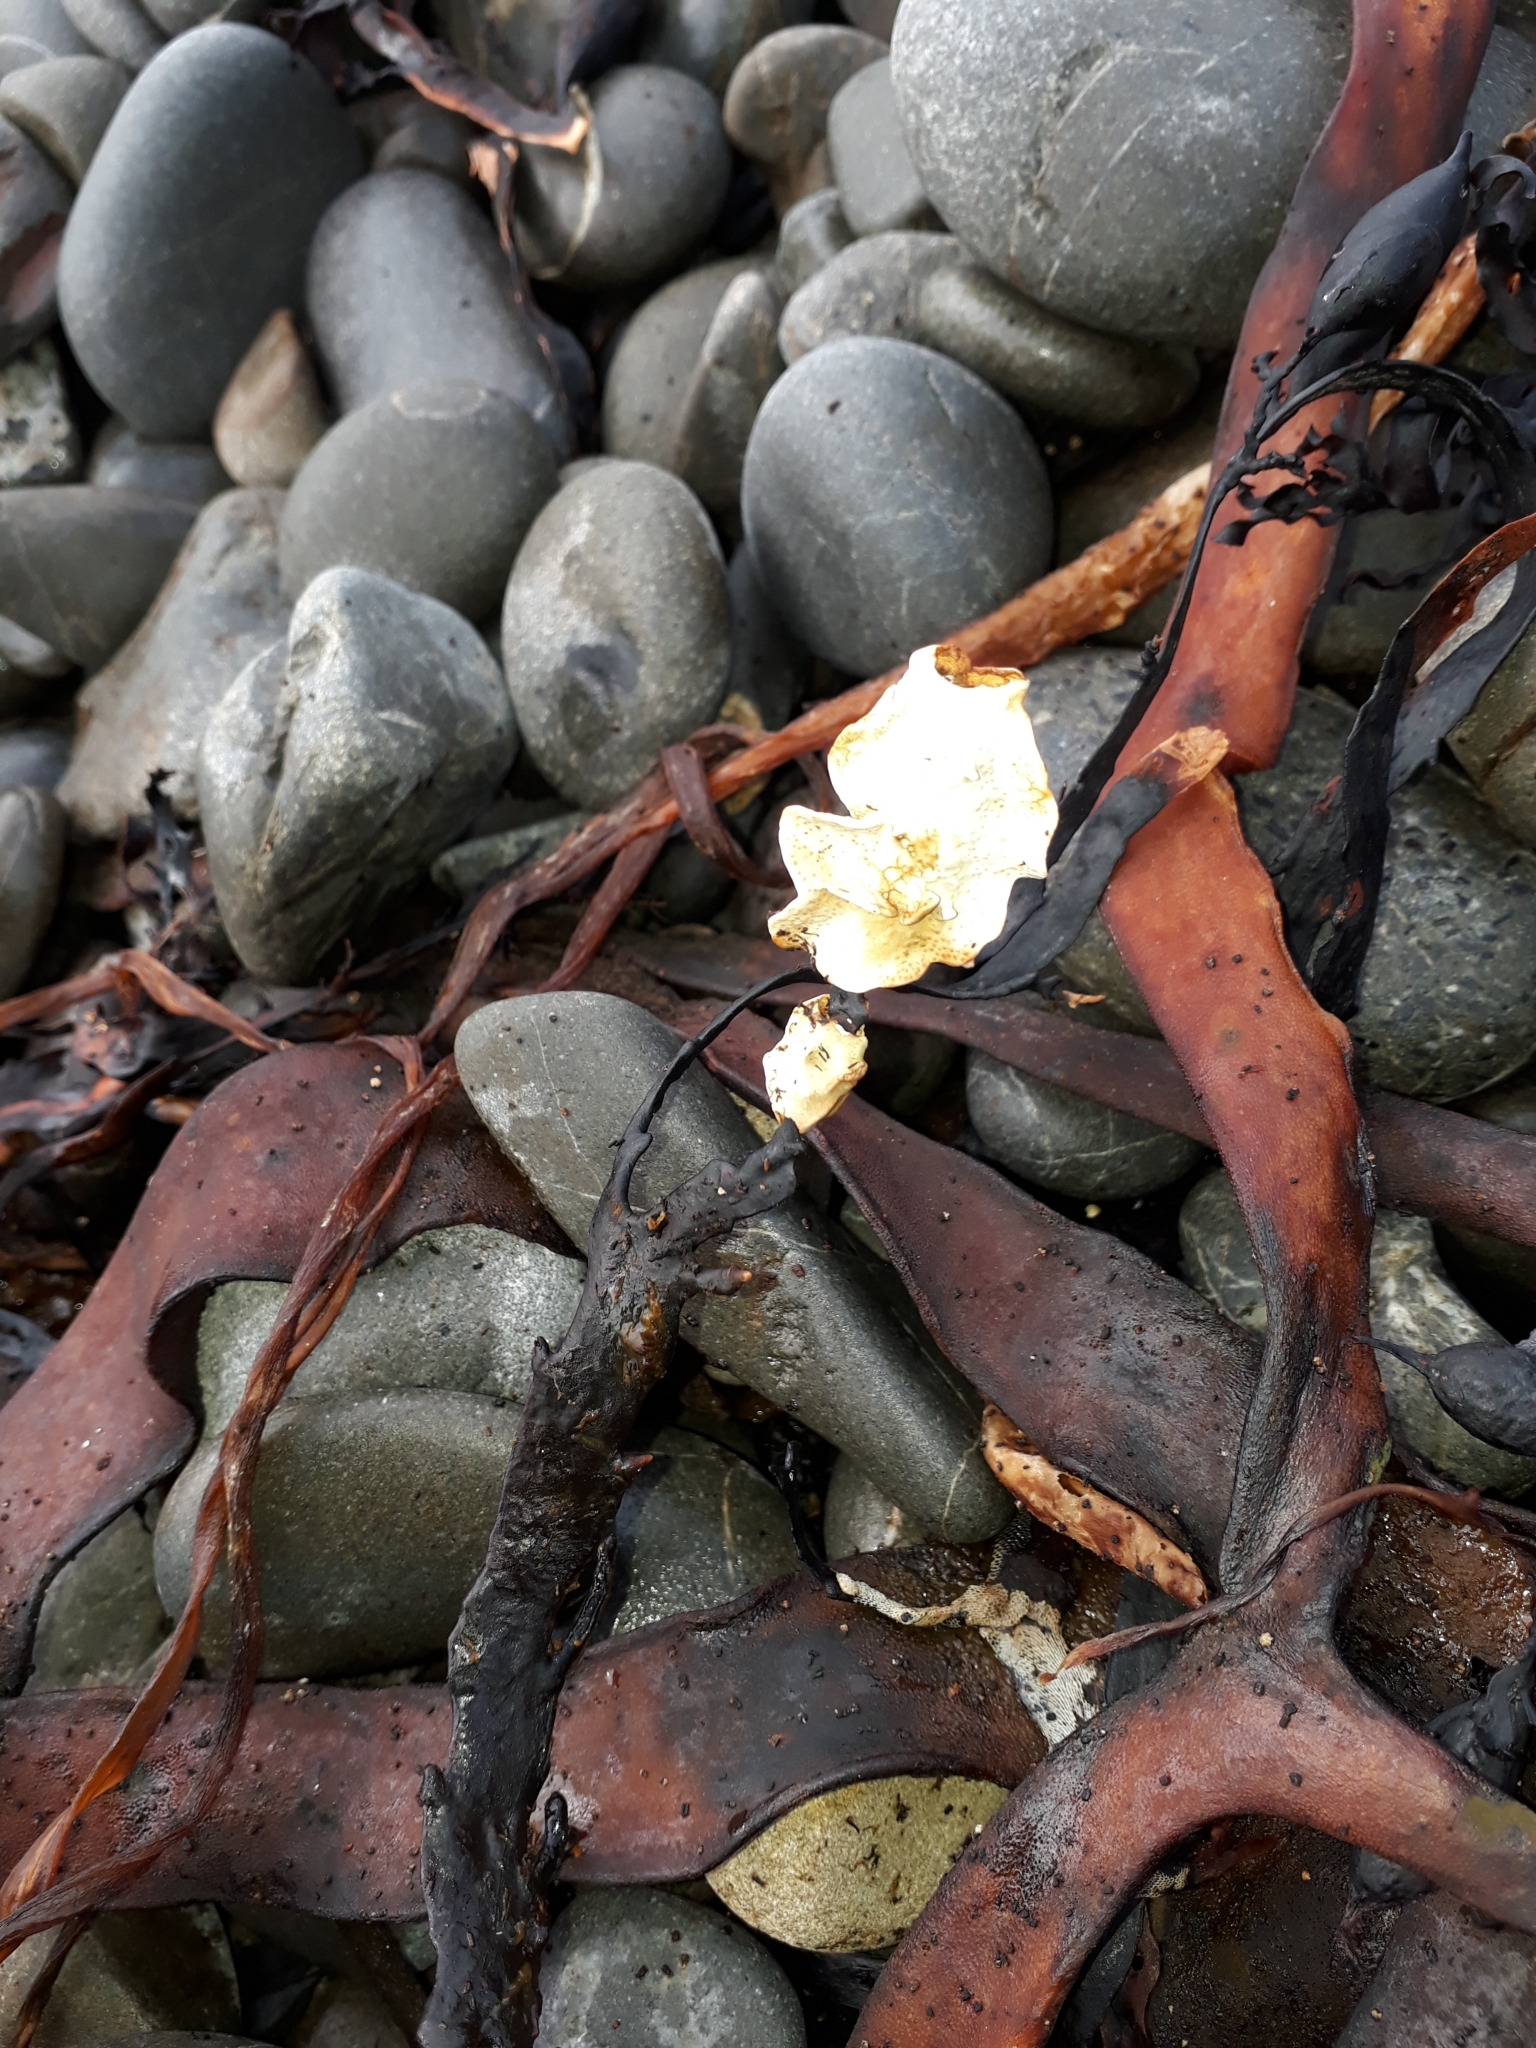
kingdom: Plantae
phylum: Rhodophyta
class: Florideophyceae
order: Corallinales
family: Lithophyllaceae
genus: Lithophyllum
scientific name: Lithophyllum carpophylli
